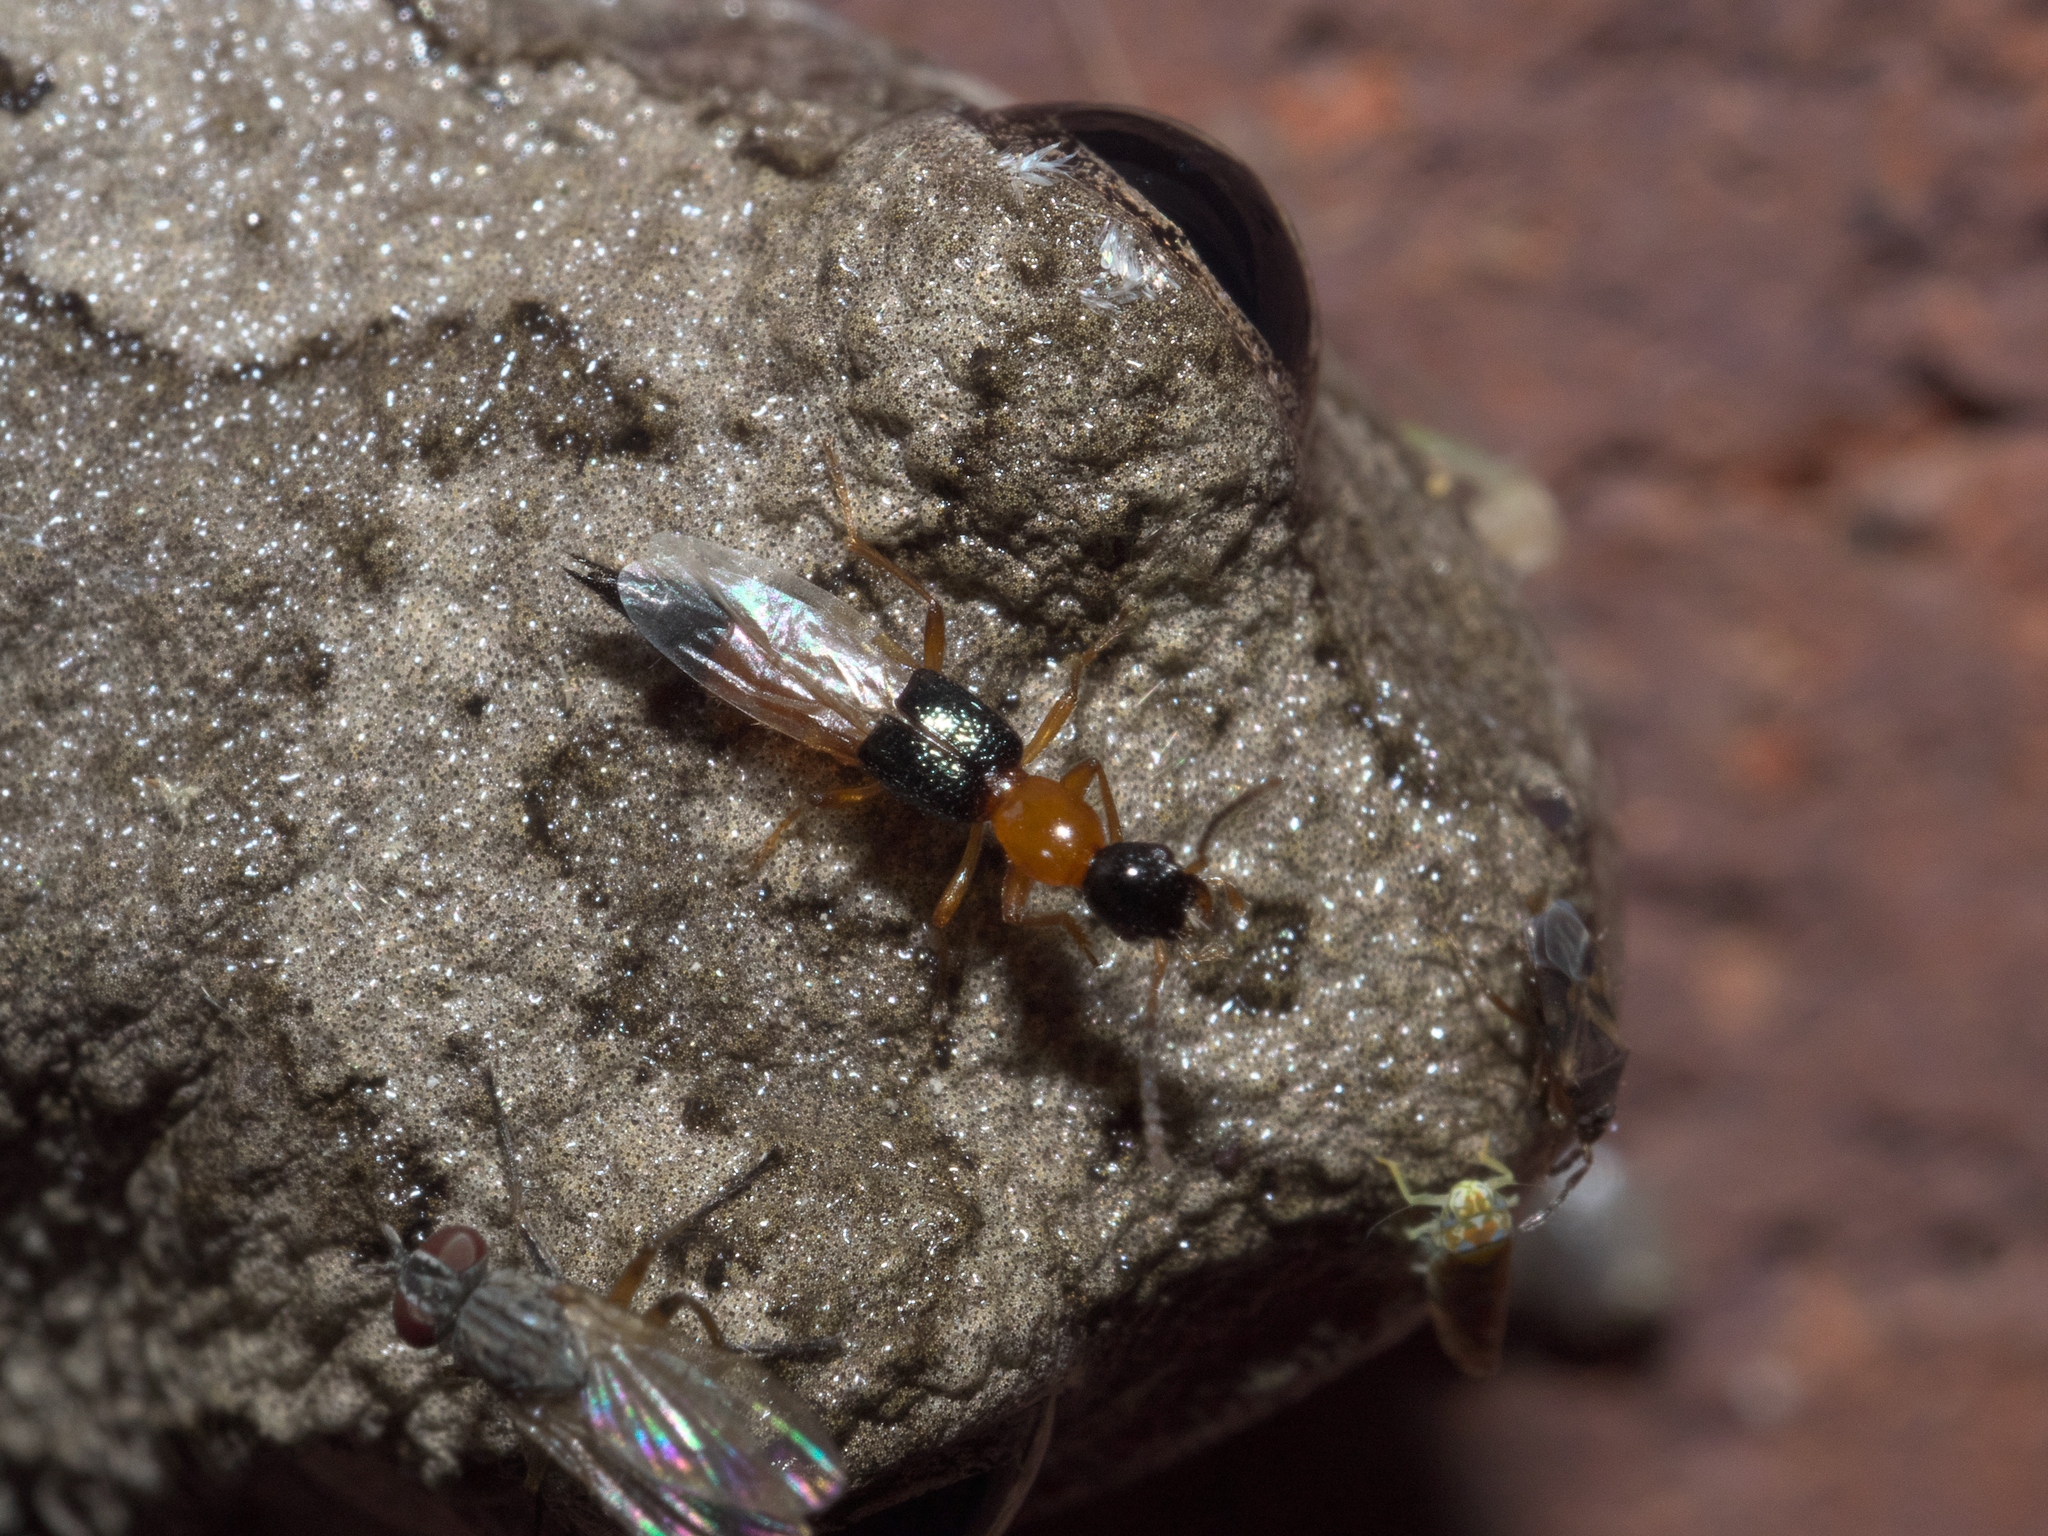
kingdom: Animalia
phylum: Chordata
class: Amphibia
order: Anura
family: Hylidae
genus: Hyla
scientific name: Hyla
